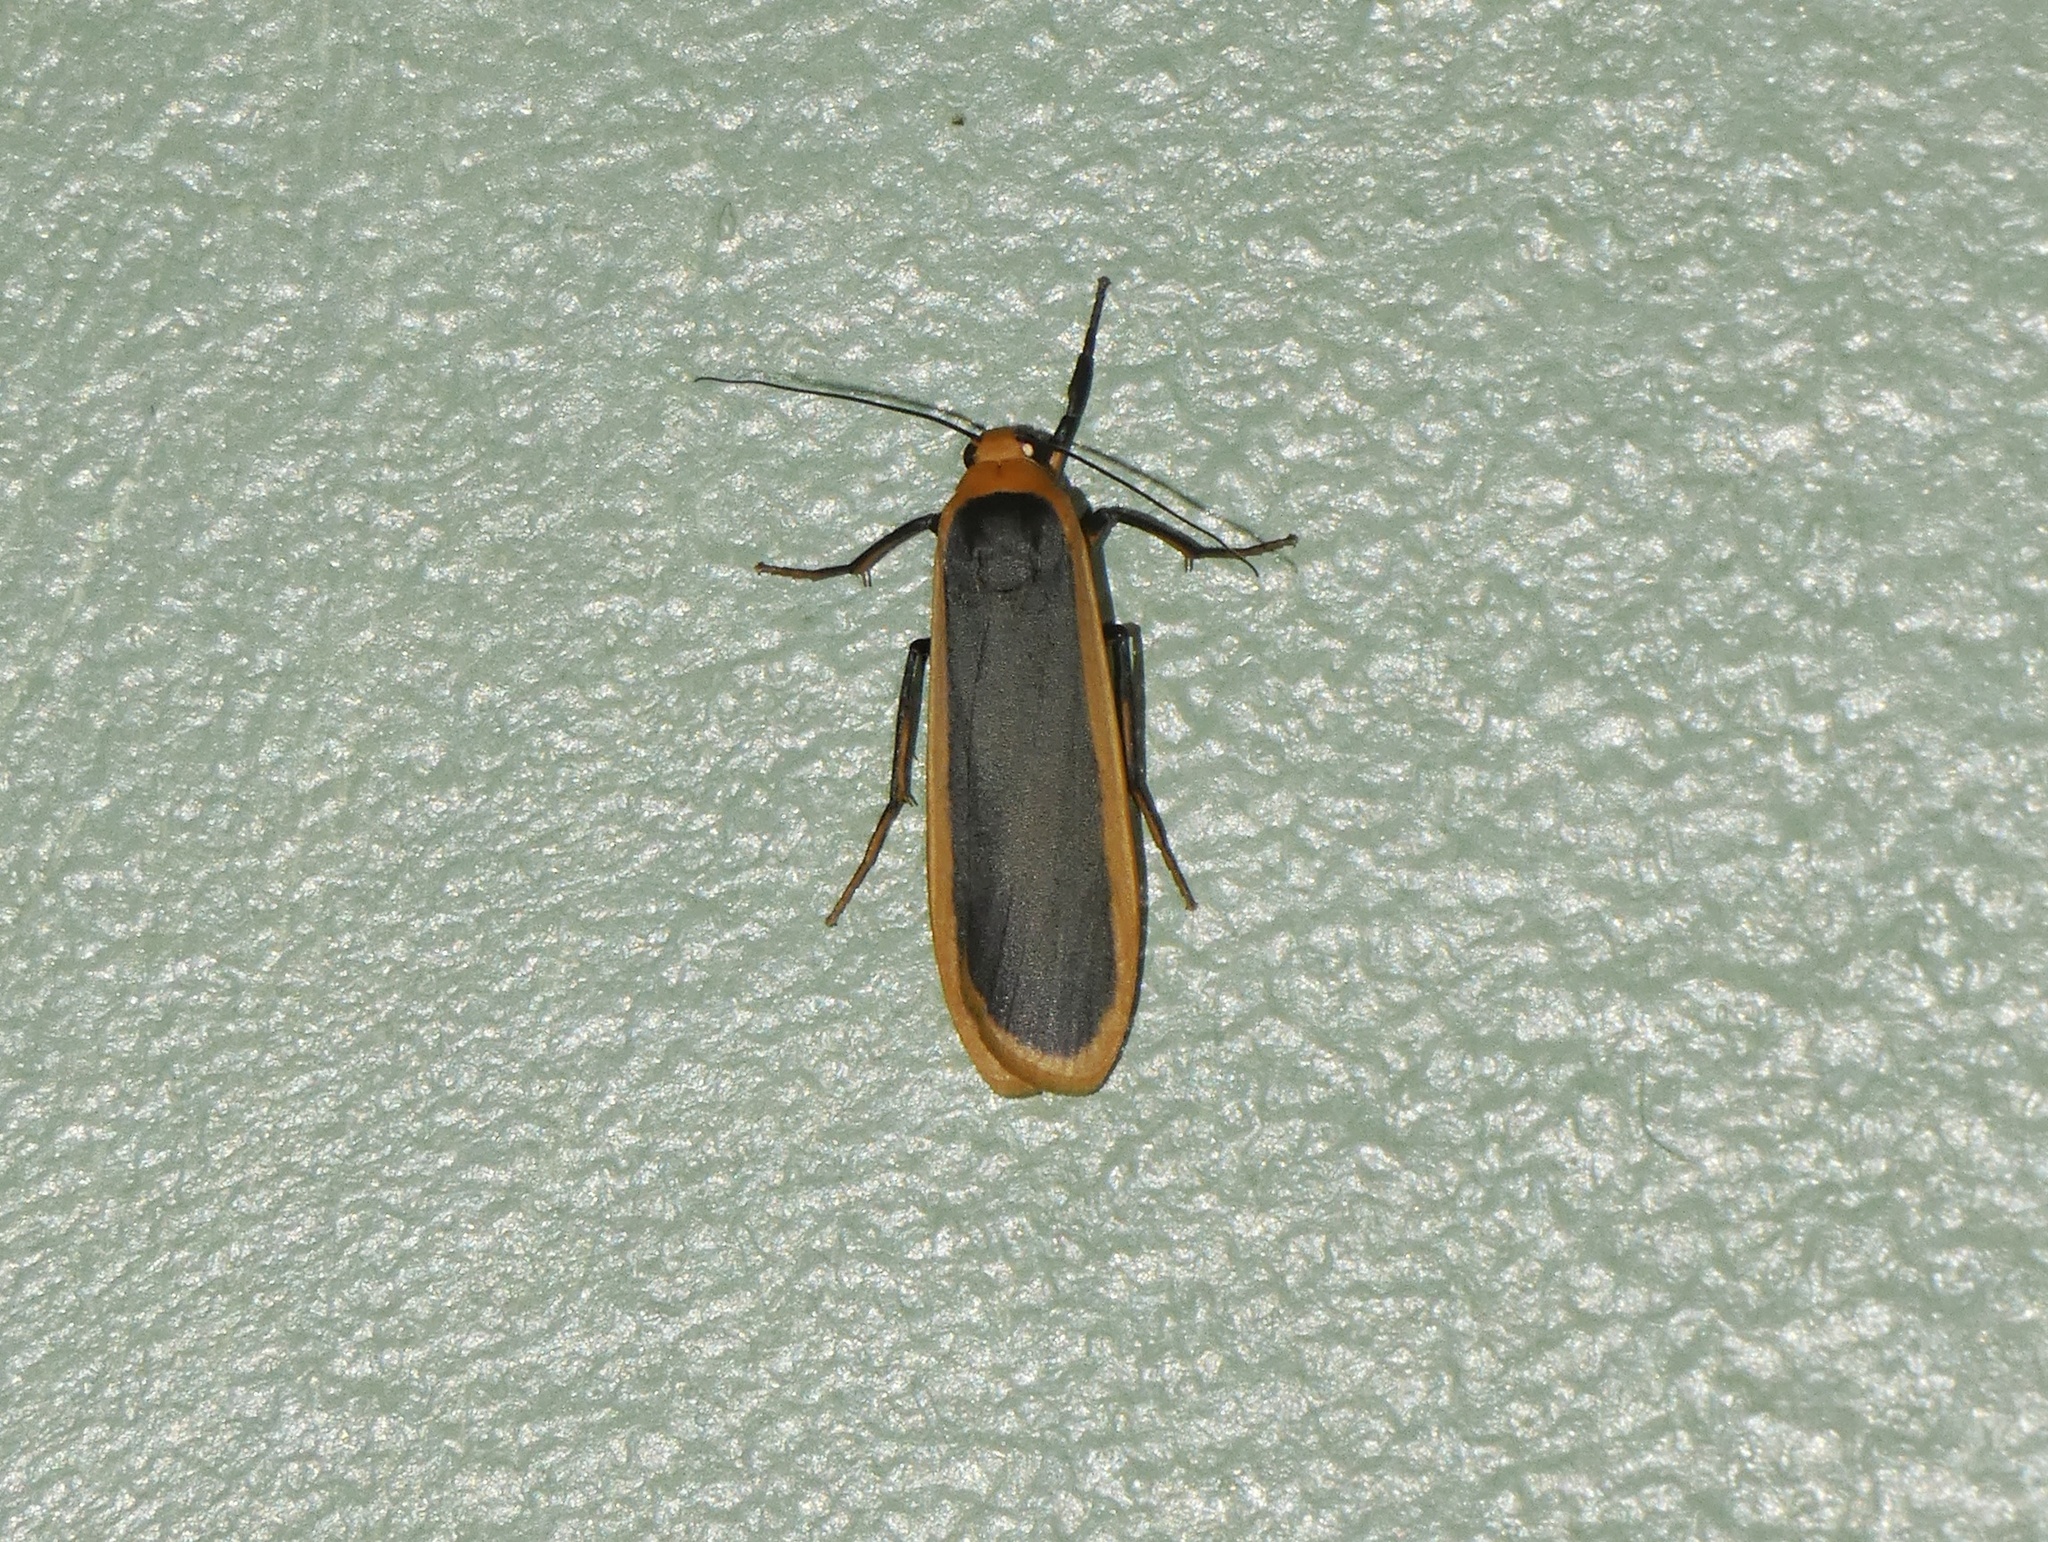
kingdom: Animalia
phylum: Arthropoda
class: Insecta
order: Lepidoptera
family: Erebidae
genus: Brunia
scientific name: Brunia dorsalis
